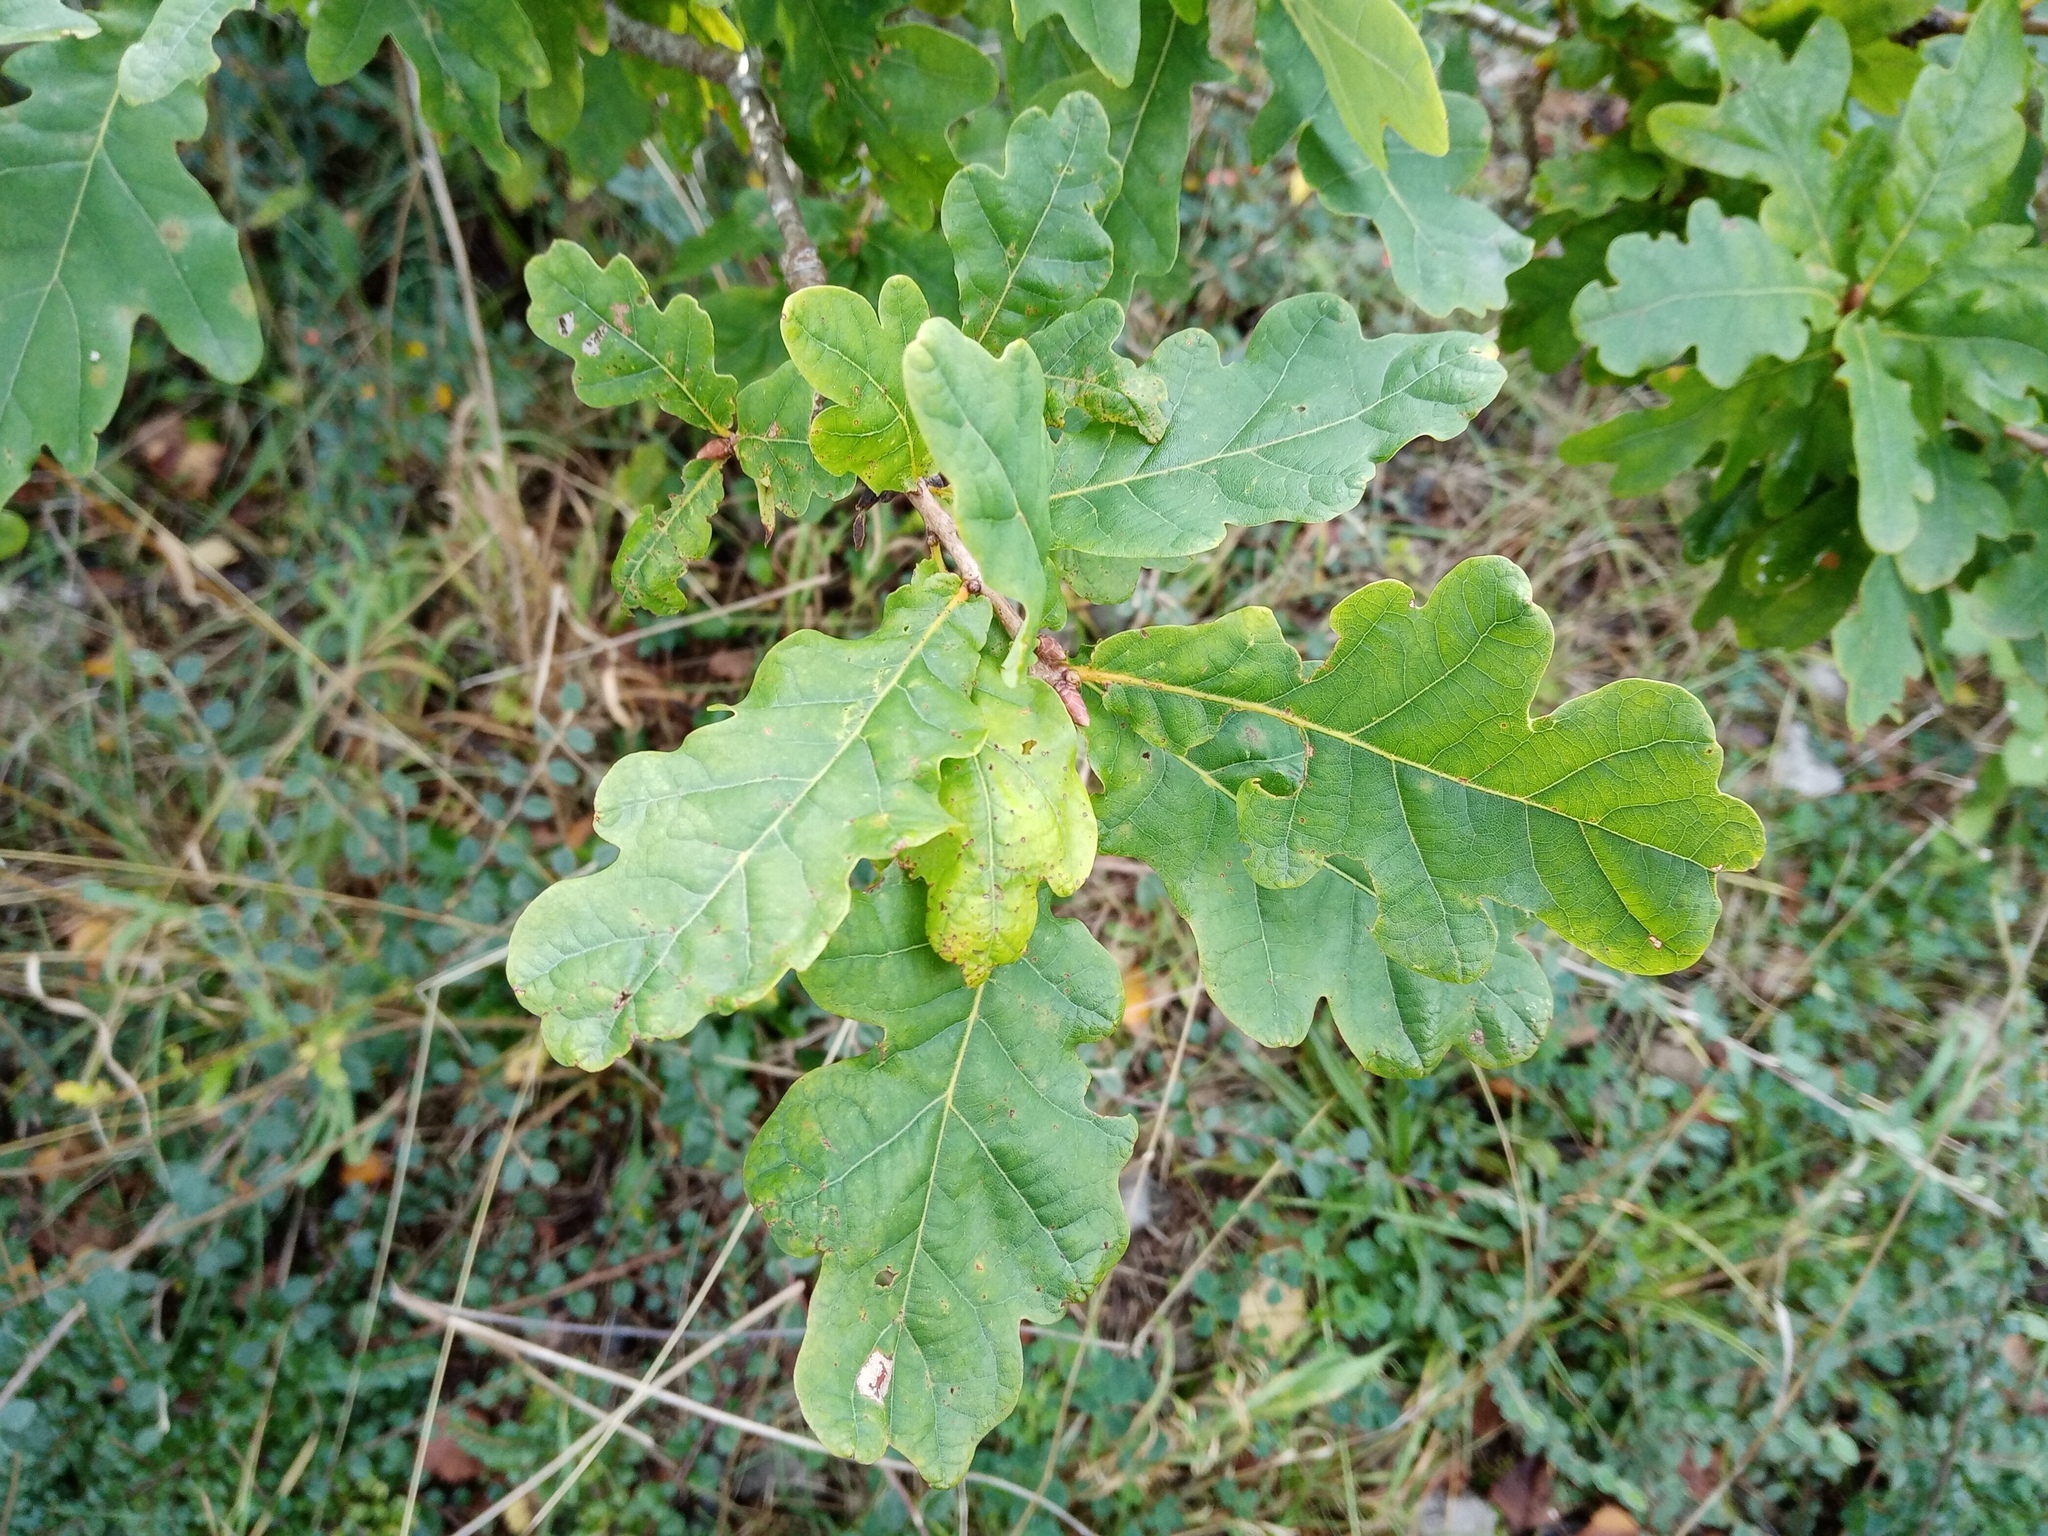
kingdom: Plantae
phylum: Tracheophyta
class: Magnoliopsida
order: Fagales
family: Fagaceae
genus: Quercus
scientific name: Quercus robur
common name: Pedunculate oak
